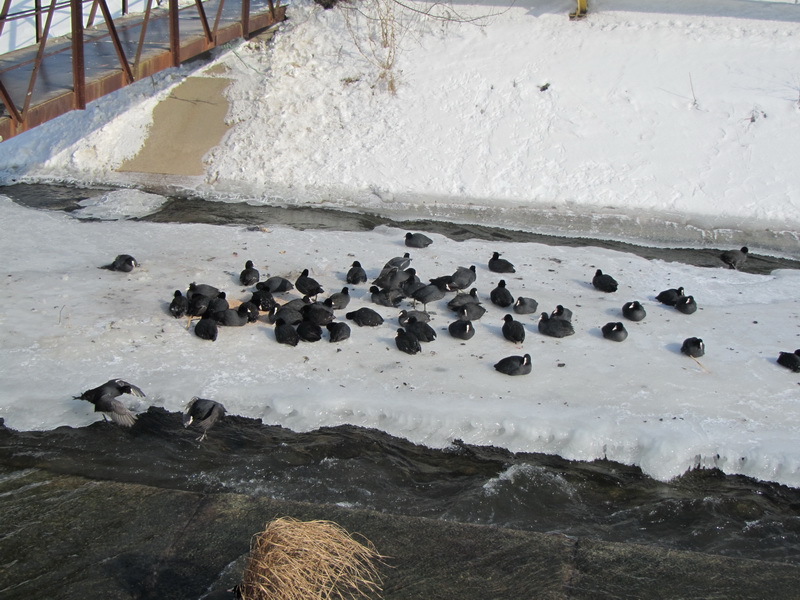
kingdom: Animalia
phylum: Chordata
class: Aves
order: Gruiformes
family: Rallidae
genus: Fulica
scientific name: Fulica atra
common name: Eurasian coot
